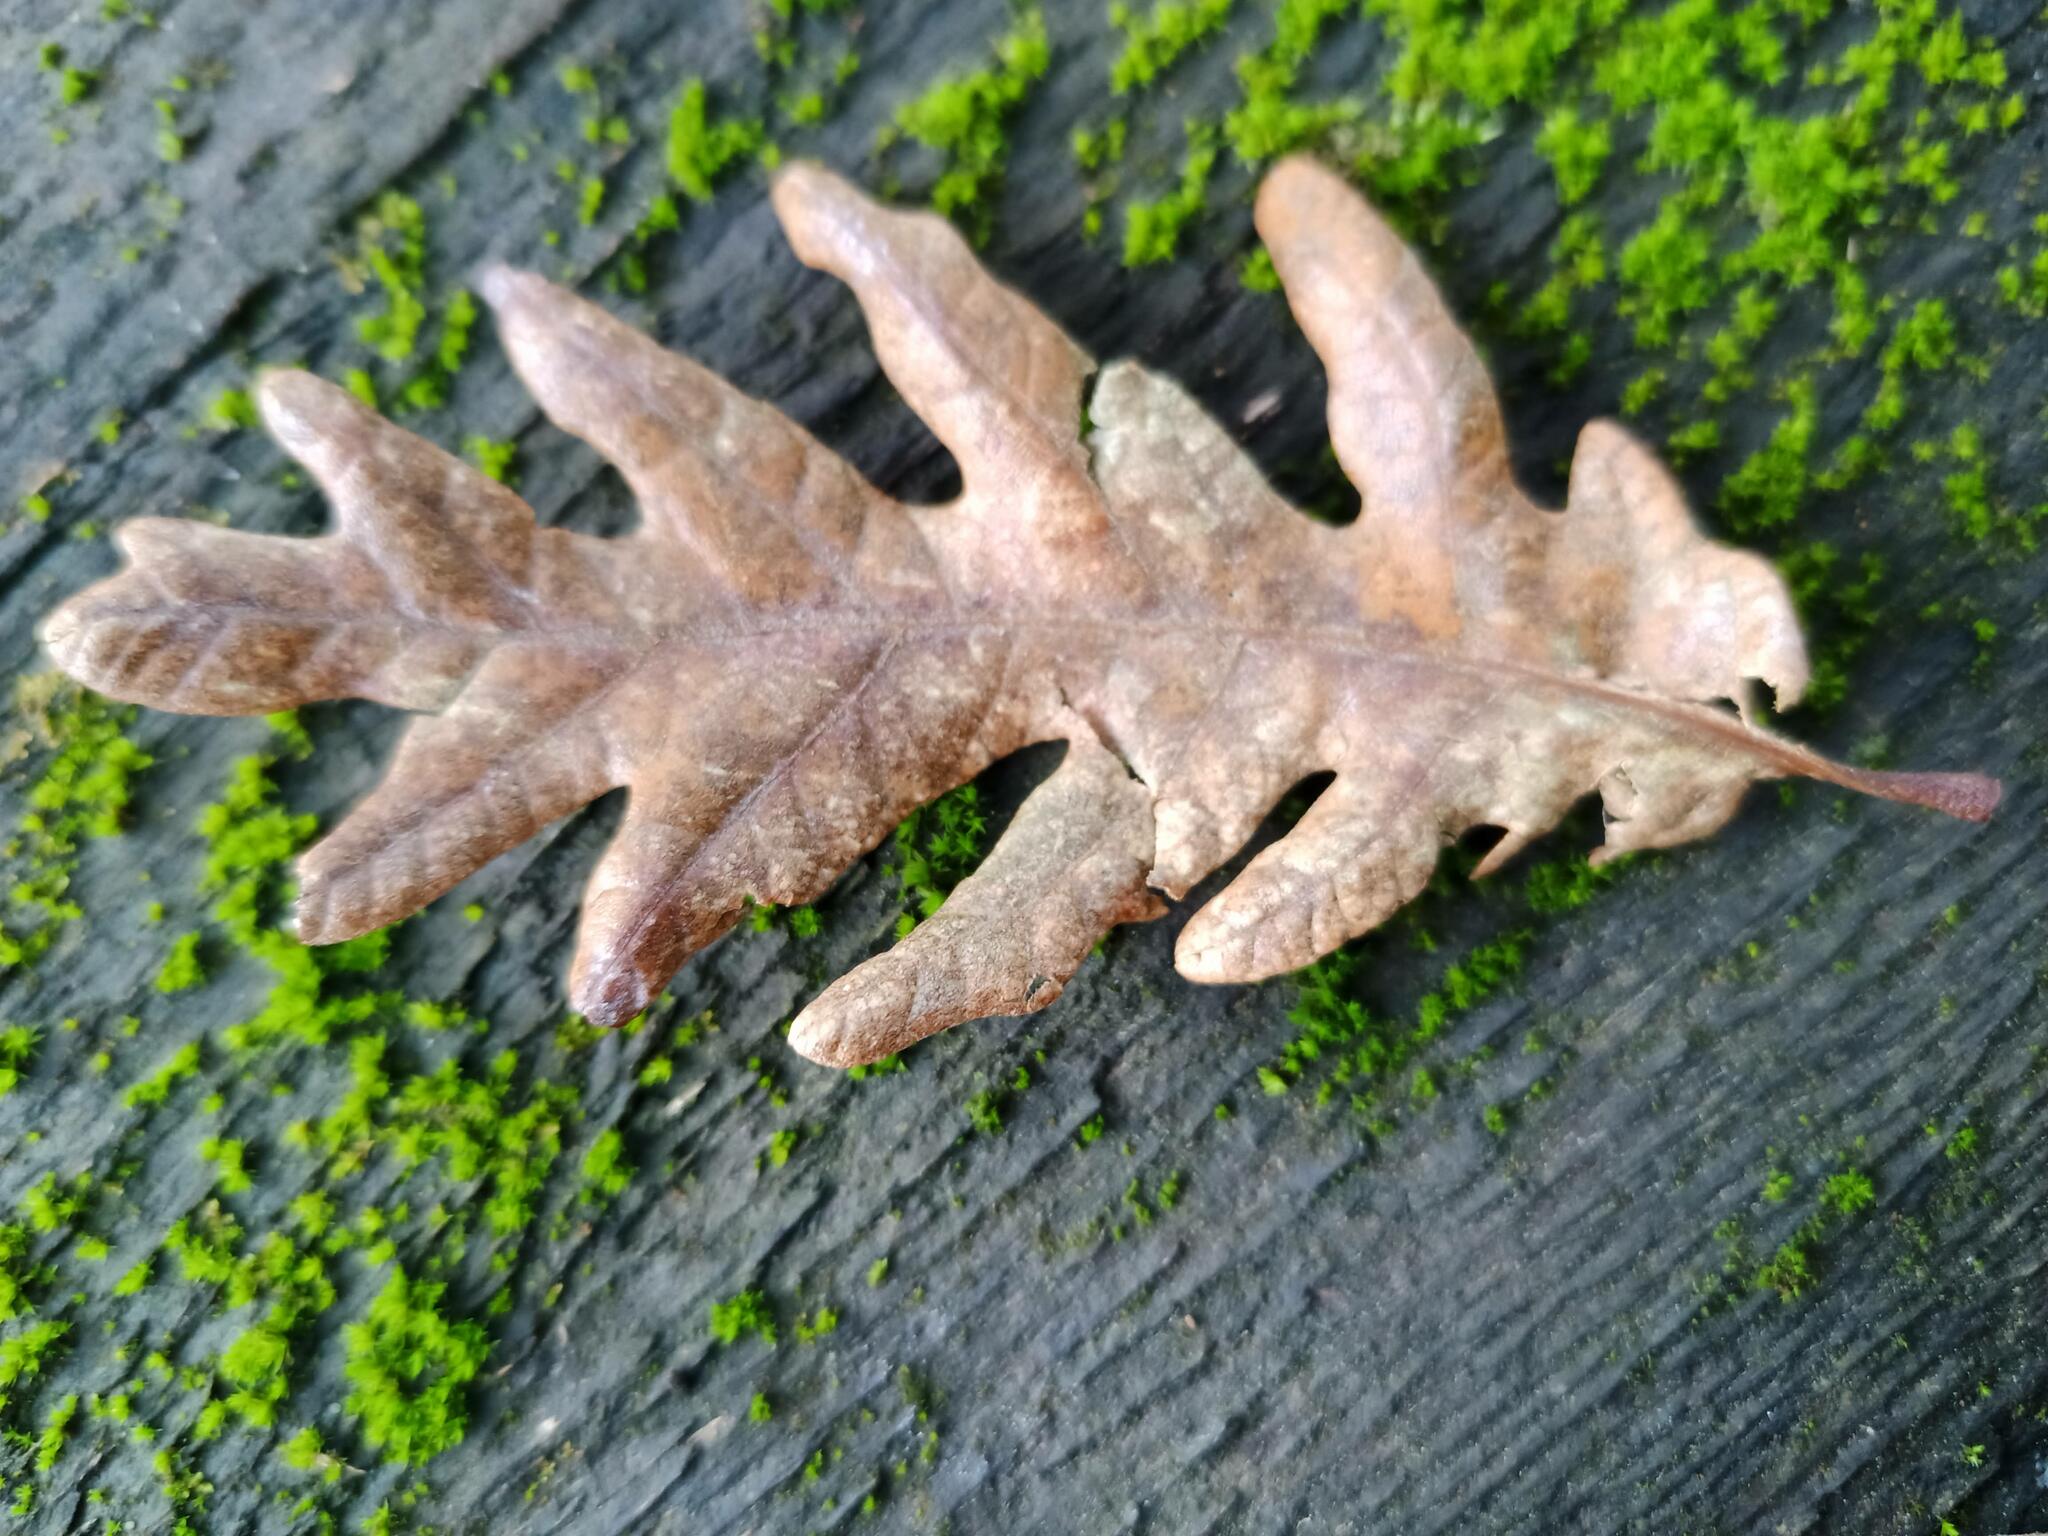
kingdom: Animalia
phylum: Arthropoda
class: Insecta
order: Hymenoptera
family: Cynipidae
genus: Neuroterus
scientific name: Neuroterus albipes
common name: Smooth spangle gall
